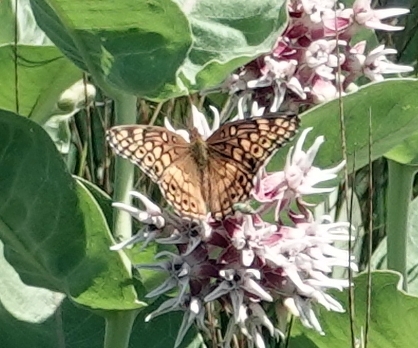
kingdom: Animalia
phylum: Arthropoda
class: Insecta
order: Lepidoptera
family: Nymphalidae
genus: Euptoieta
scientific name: Euptoieta claudia
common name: Variegated fritillary
